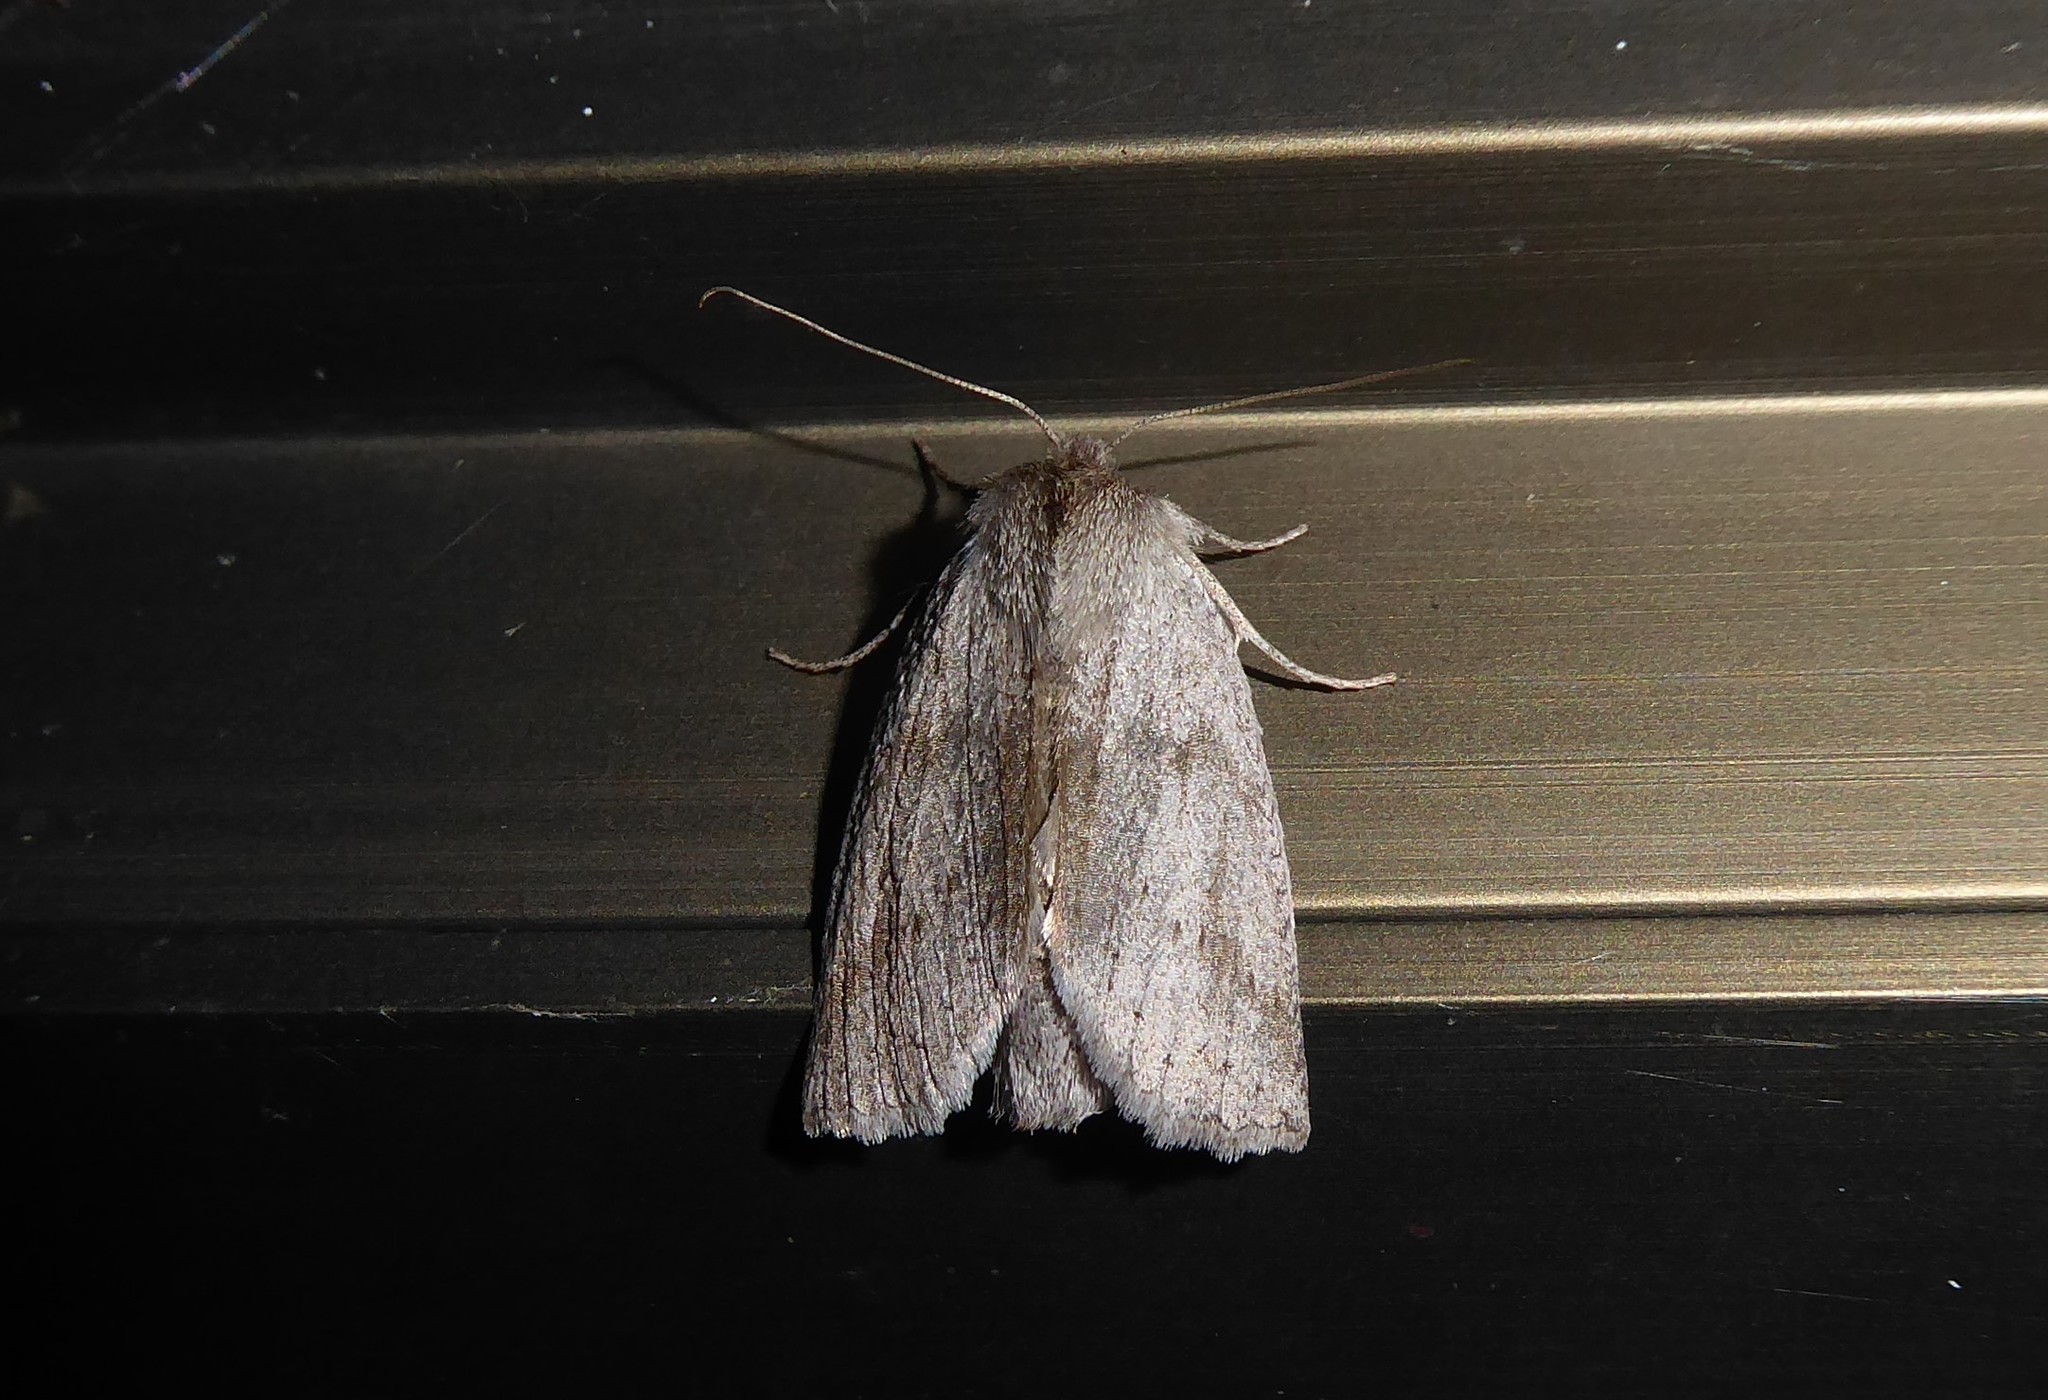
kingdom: Animalia
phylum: Arthropoda
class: Insecta
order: Lepidoptera
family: Geometridae
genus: Declana
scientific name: Declana leptomera
